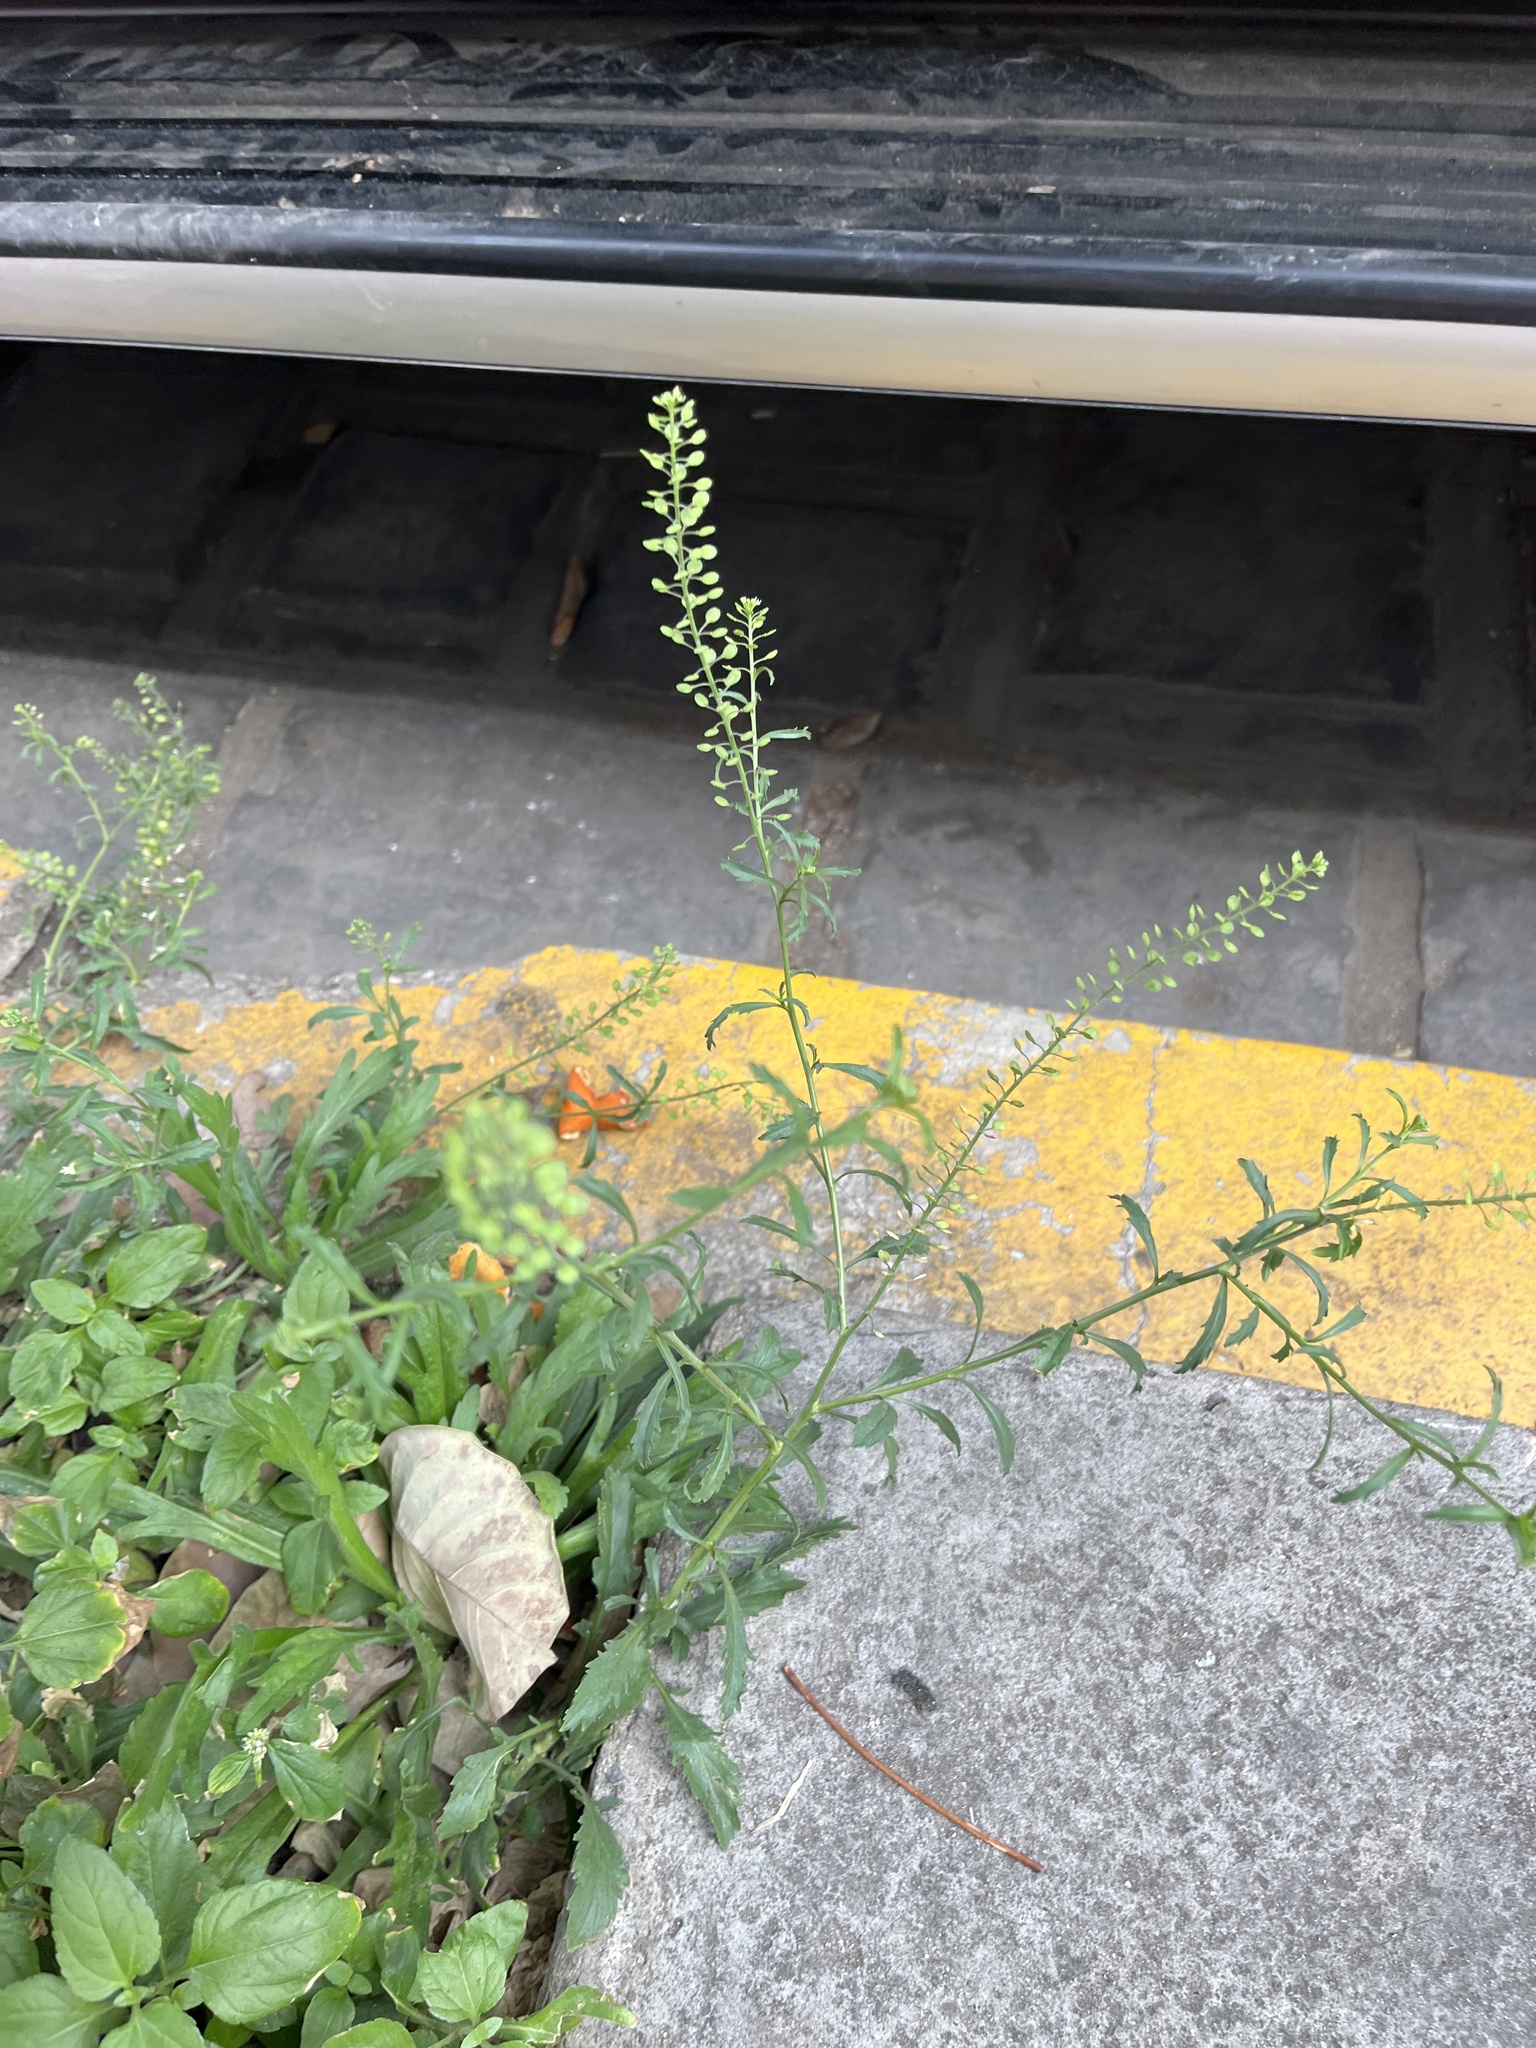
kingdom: Plantae
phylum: Tracheophyta
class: Magnoliopsida
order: Brassicales
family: Brassicaceae
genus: Lepidium
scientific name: Lepidium virginicum
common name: Least pepperwort
